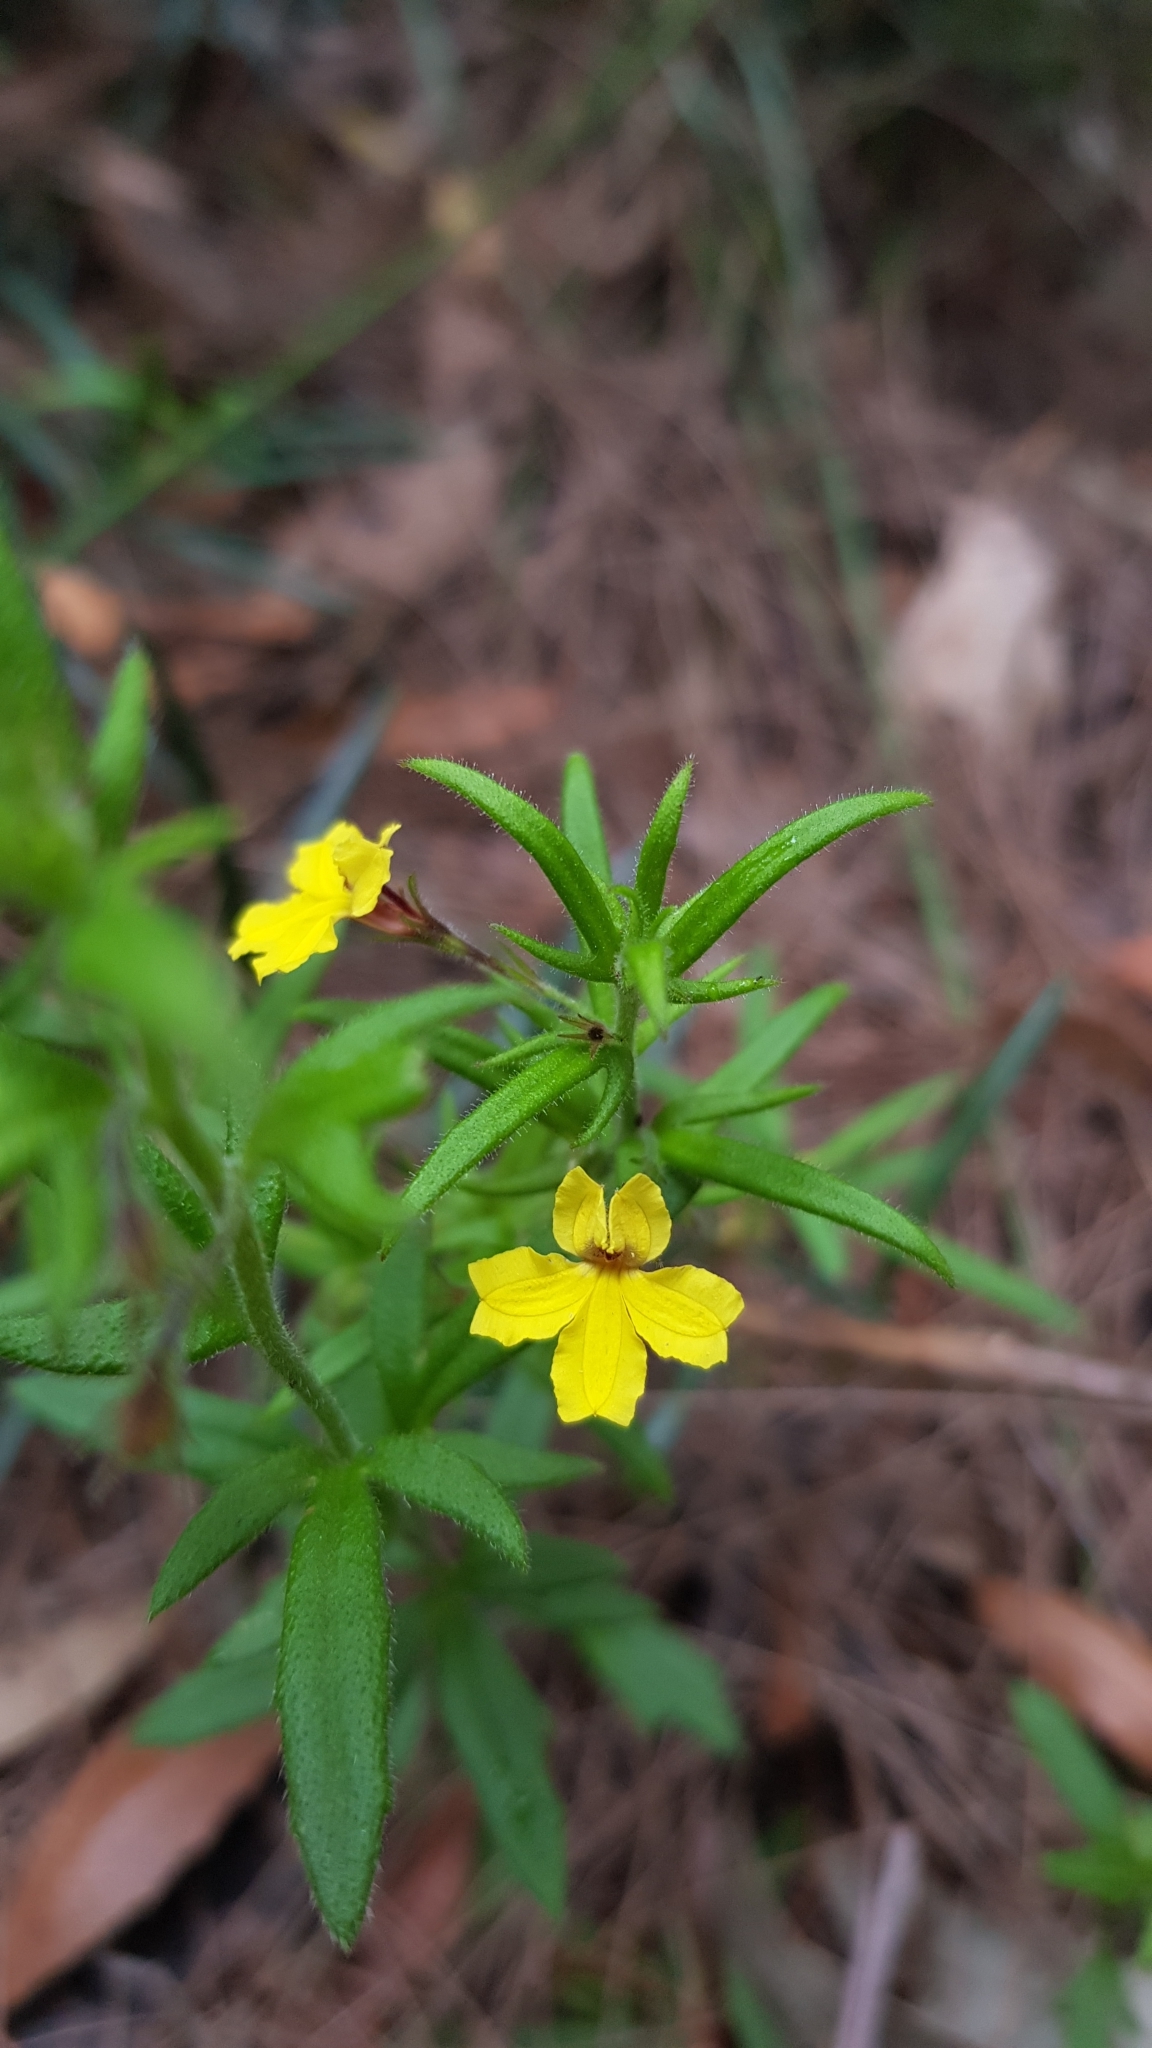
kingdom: Plantae
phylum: Tracheophyta
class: Magnoliopsida
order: Asterales
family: Goodeniaceae
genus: Goodenia
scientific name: Goodenia heterophylla
